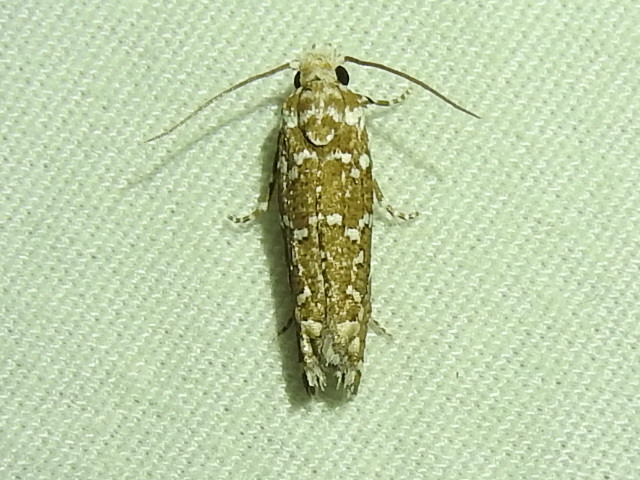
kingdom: Animalia
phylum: Arthropoda
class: Insecta
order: Lepidoptera
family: Tortricidae
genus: Pelochrista
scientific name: Pelochrista guttulana
